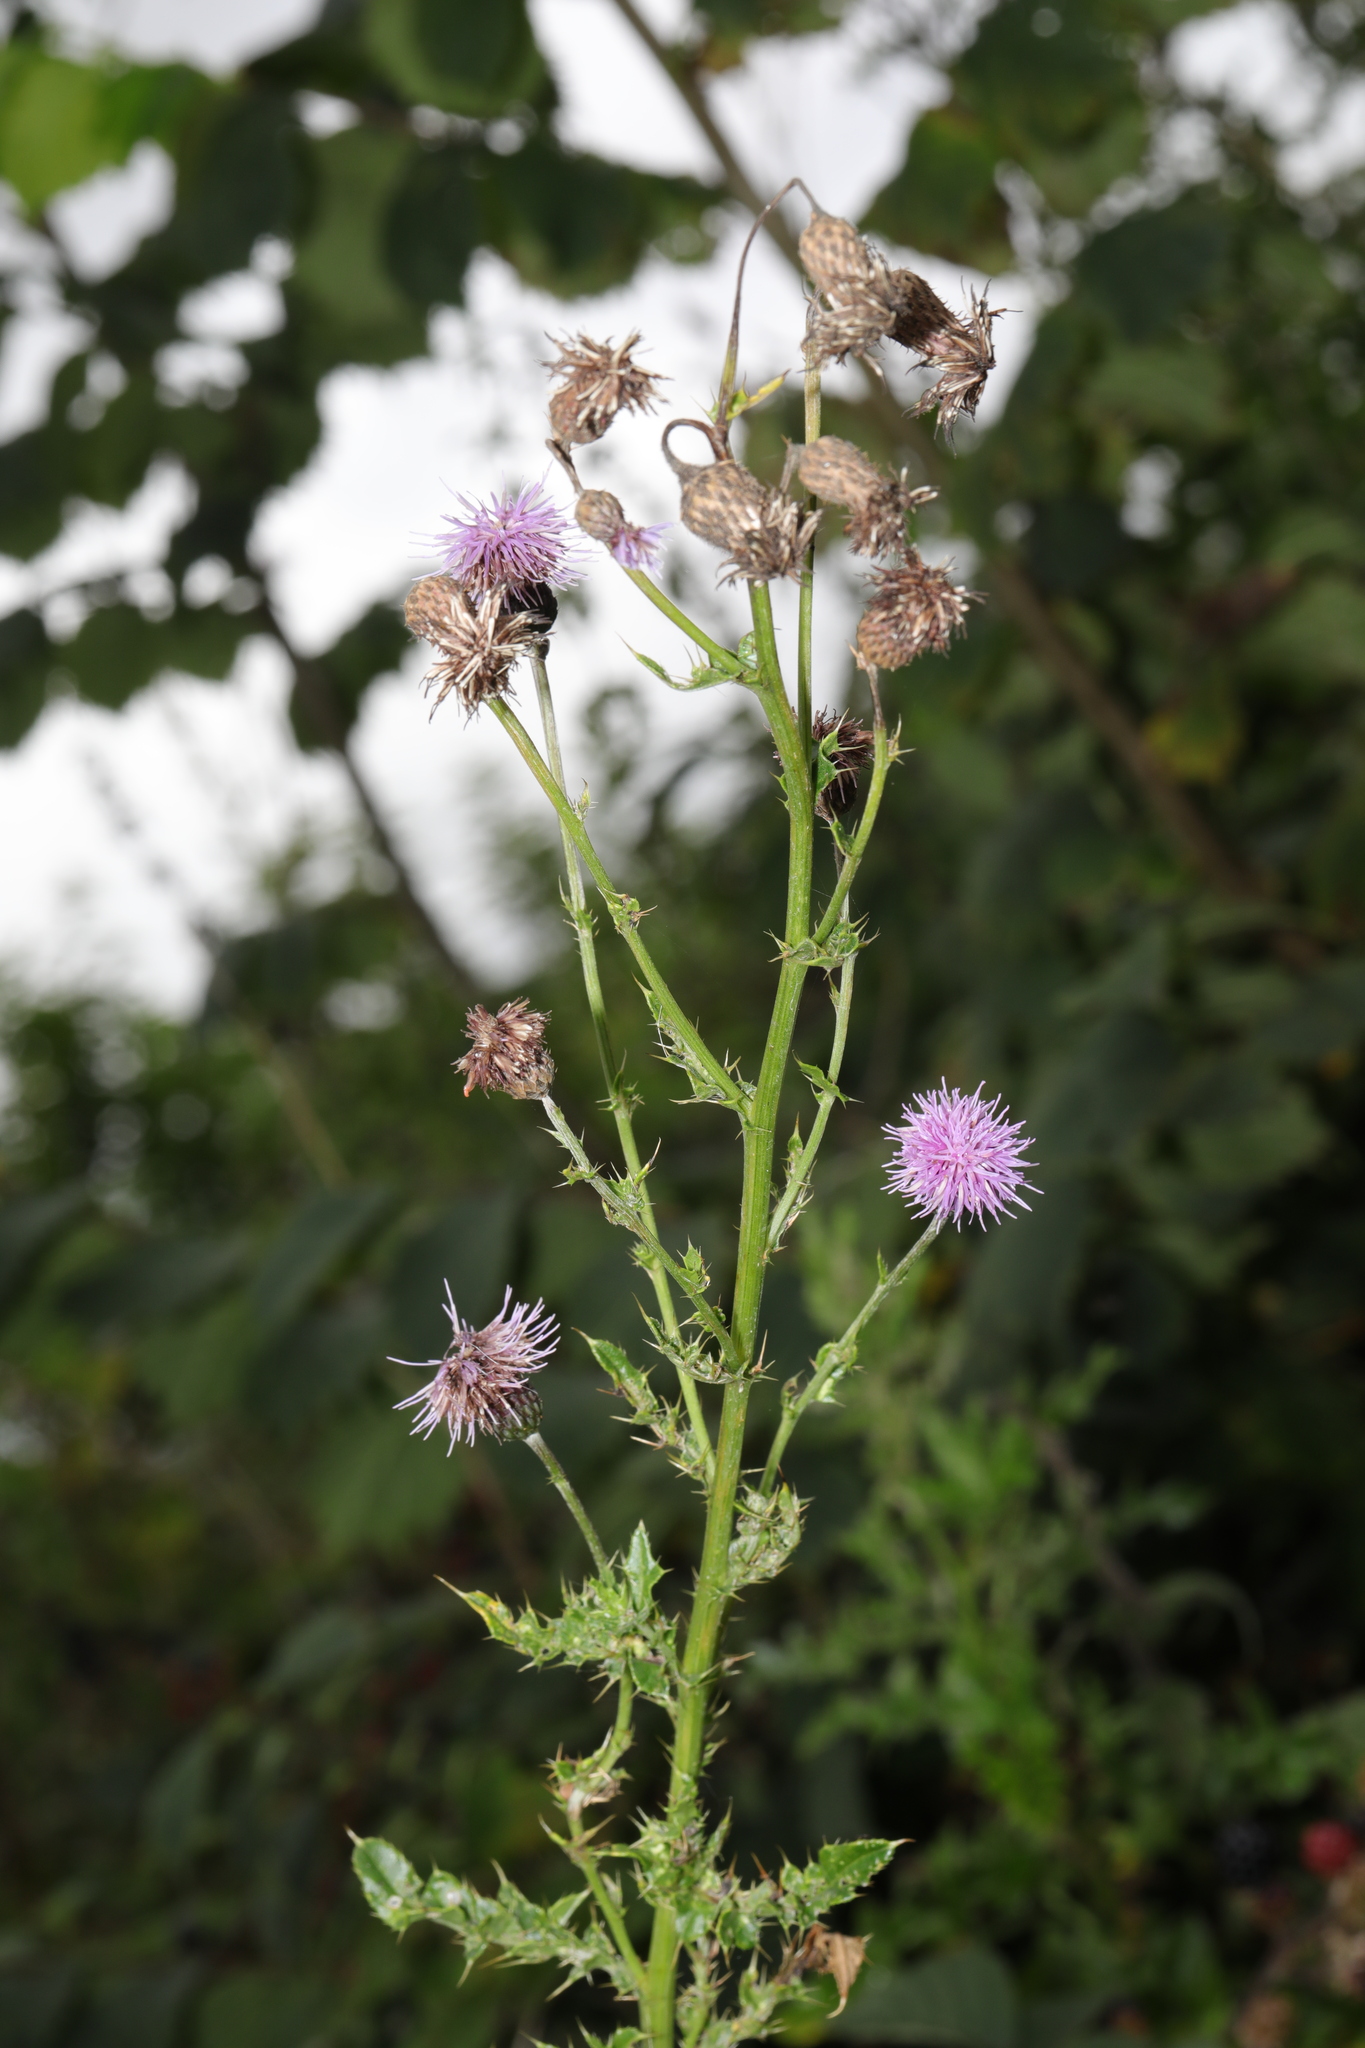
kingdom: Plantae
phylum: Tracheophyta
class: Magnoliopsida
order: Asterales
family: Asteraceae
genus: Cirsium
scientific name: Cirsium arvense
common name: Creeping thistle
